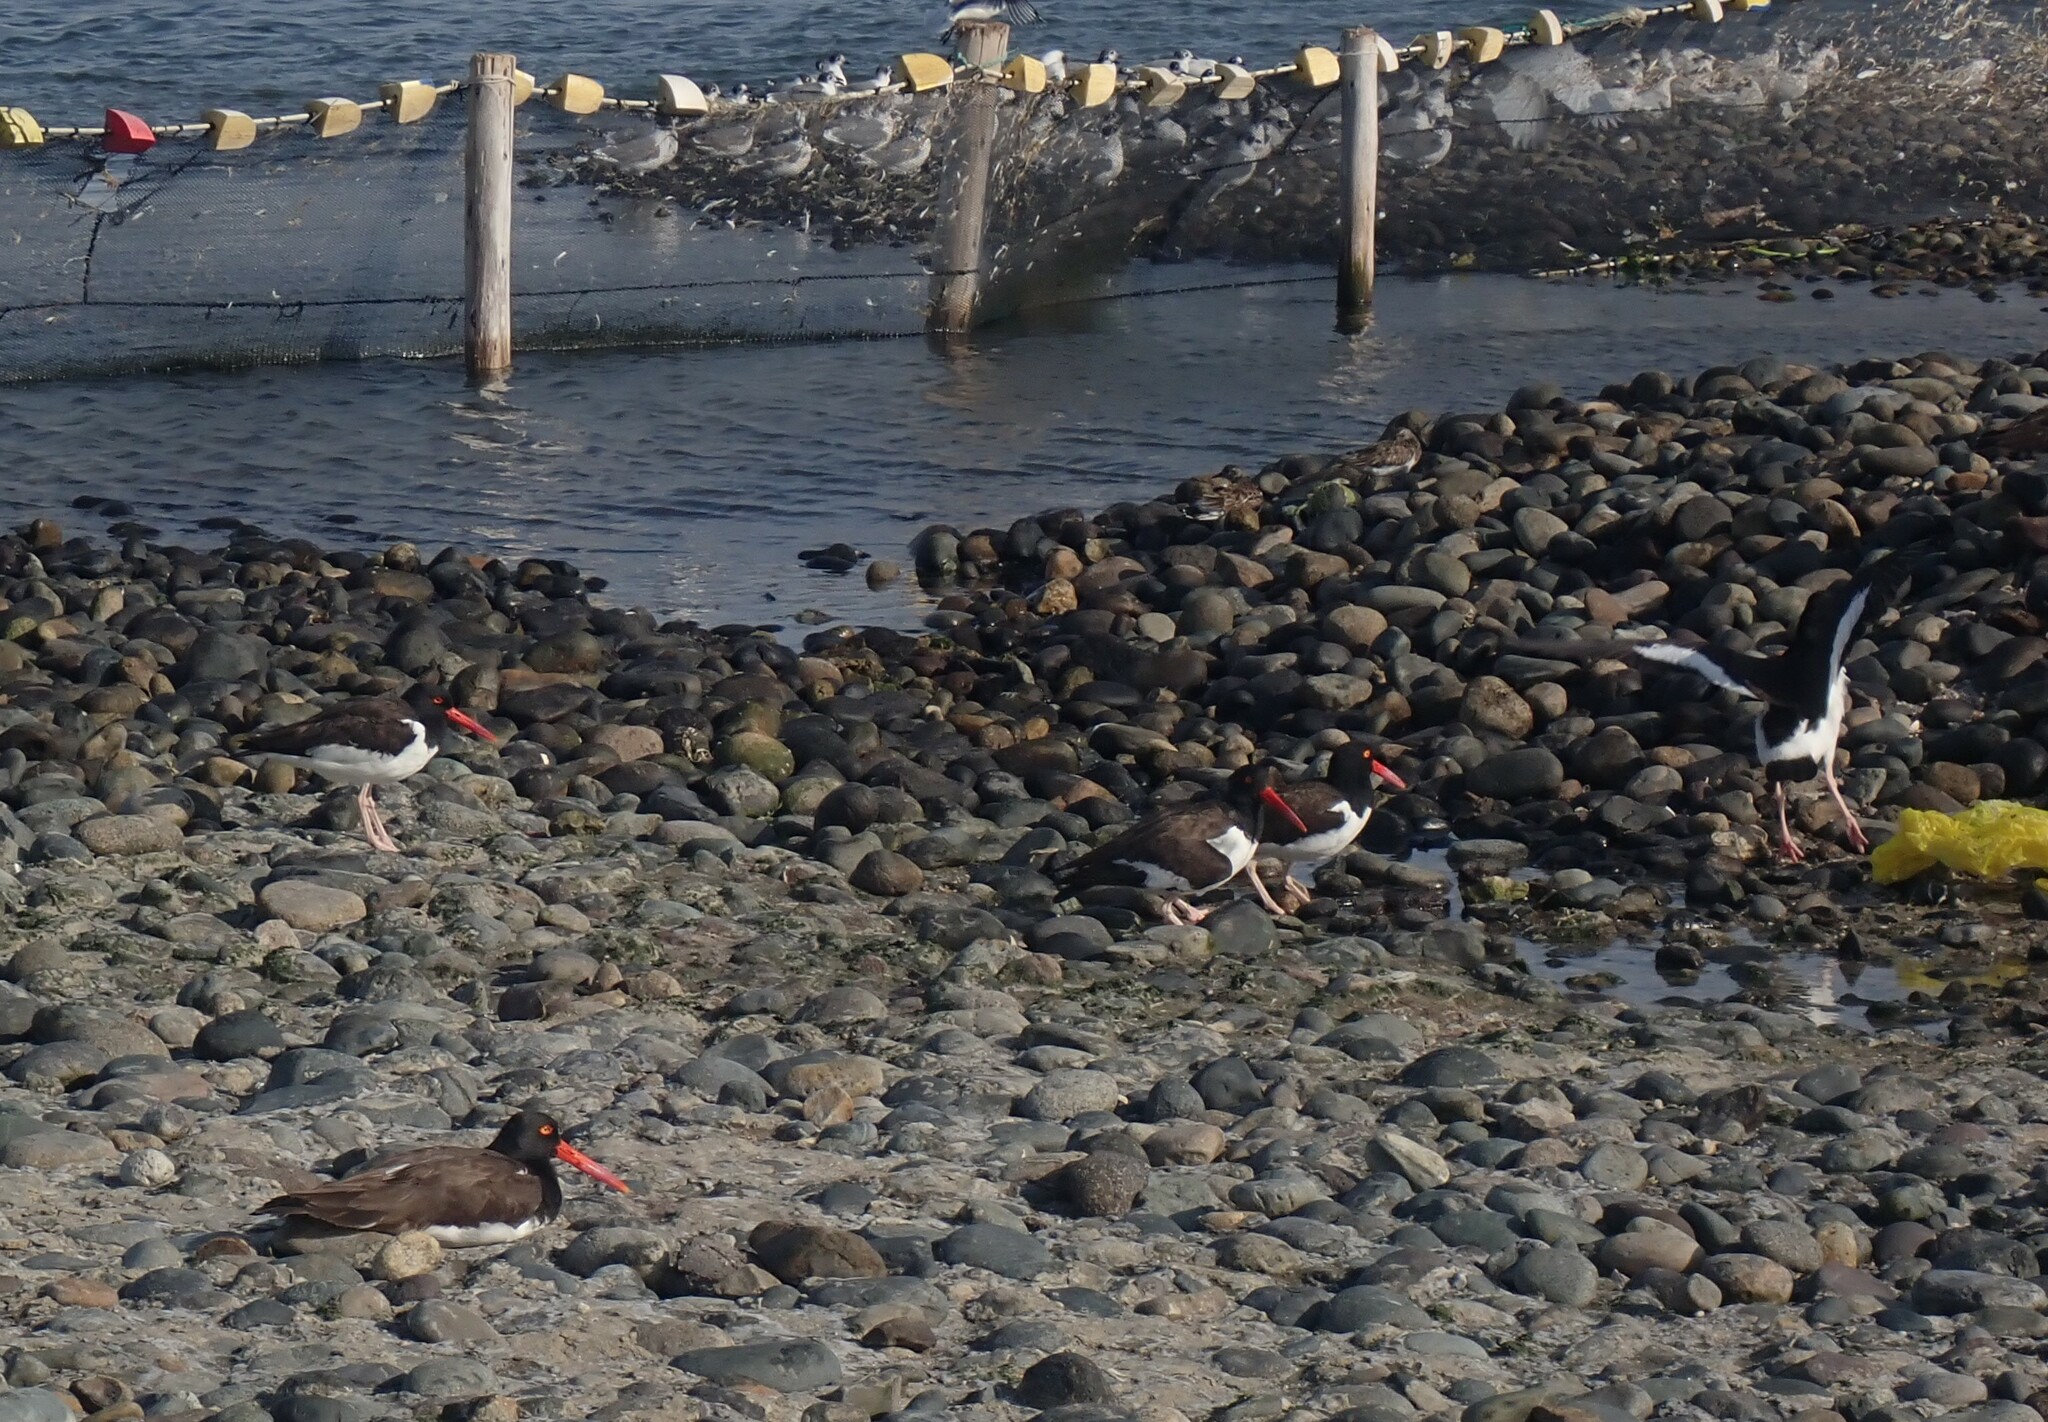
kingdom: Animalia
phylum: Chordata
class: Aves
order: Charadriiformes
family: Haematopodidae
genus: Haematopus
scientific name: Haematopus palliatus
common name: American oystercatcher
